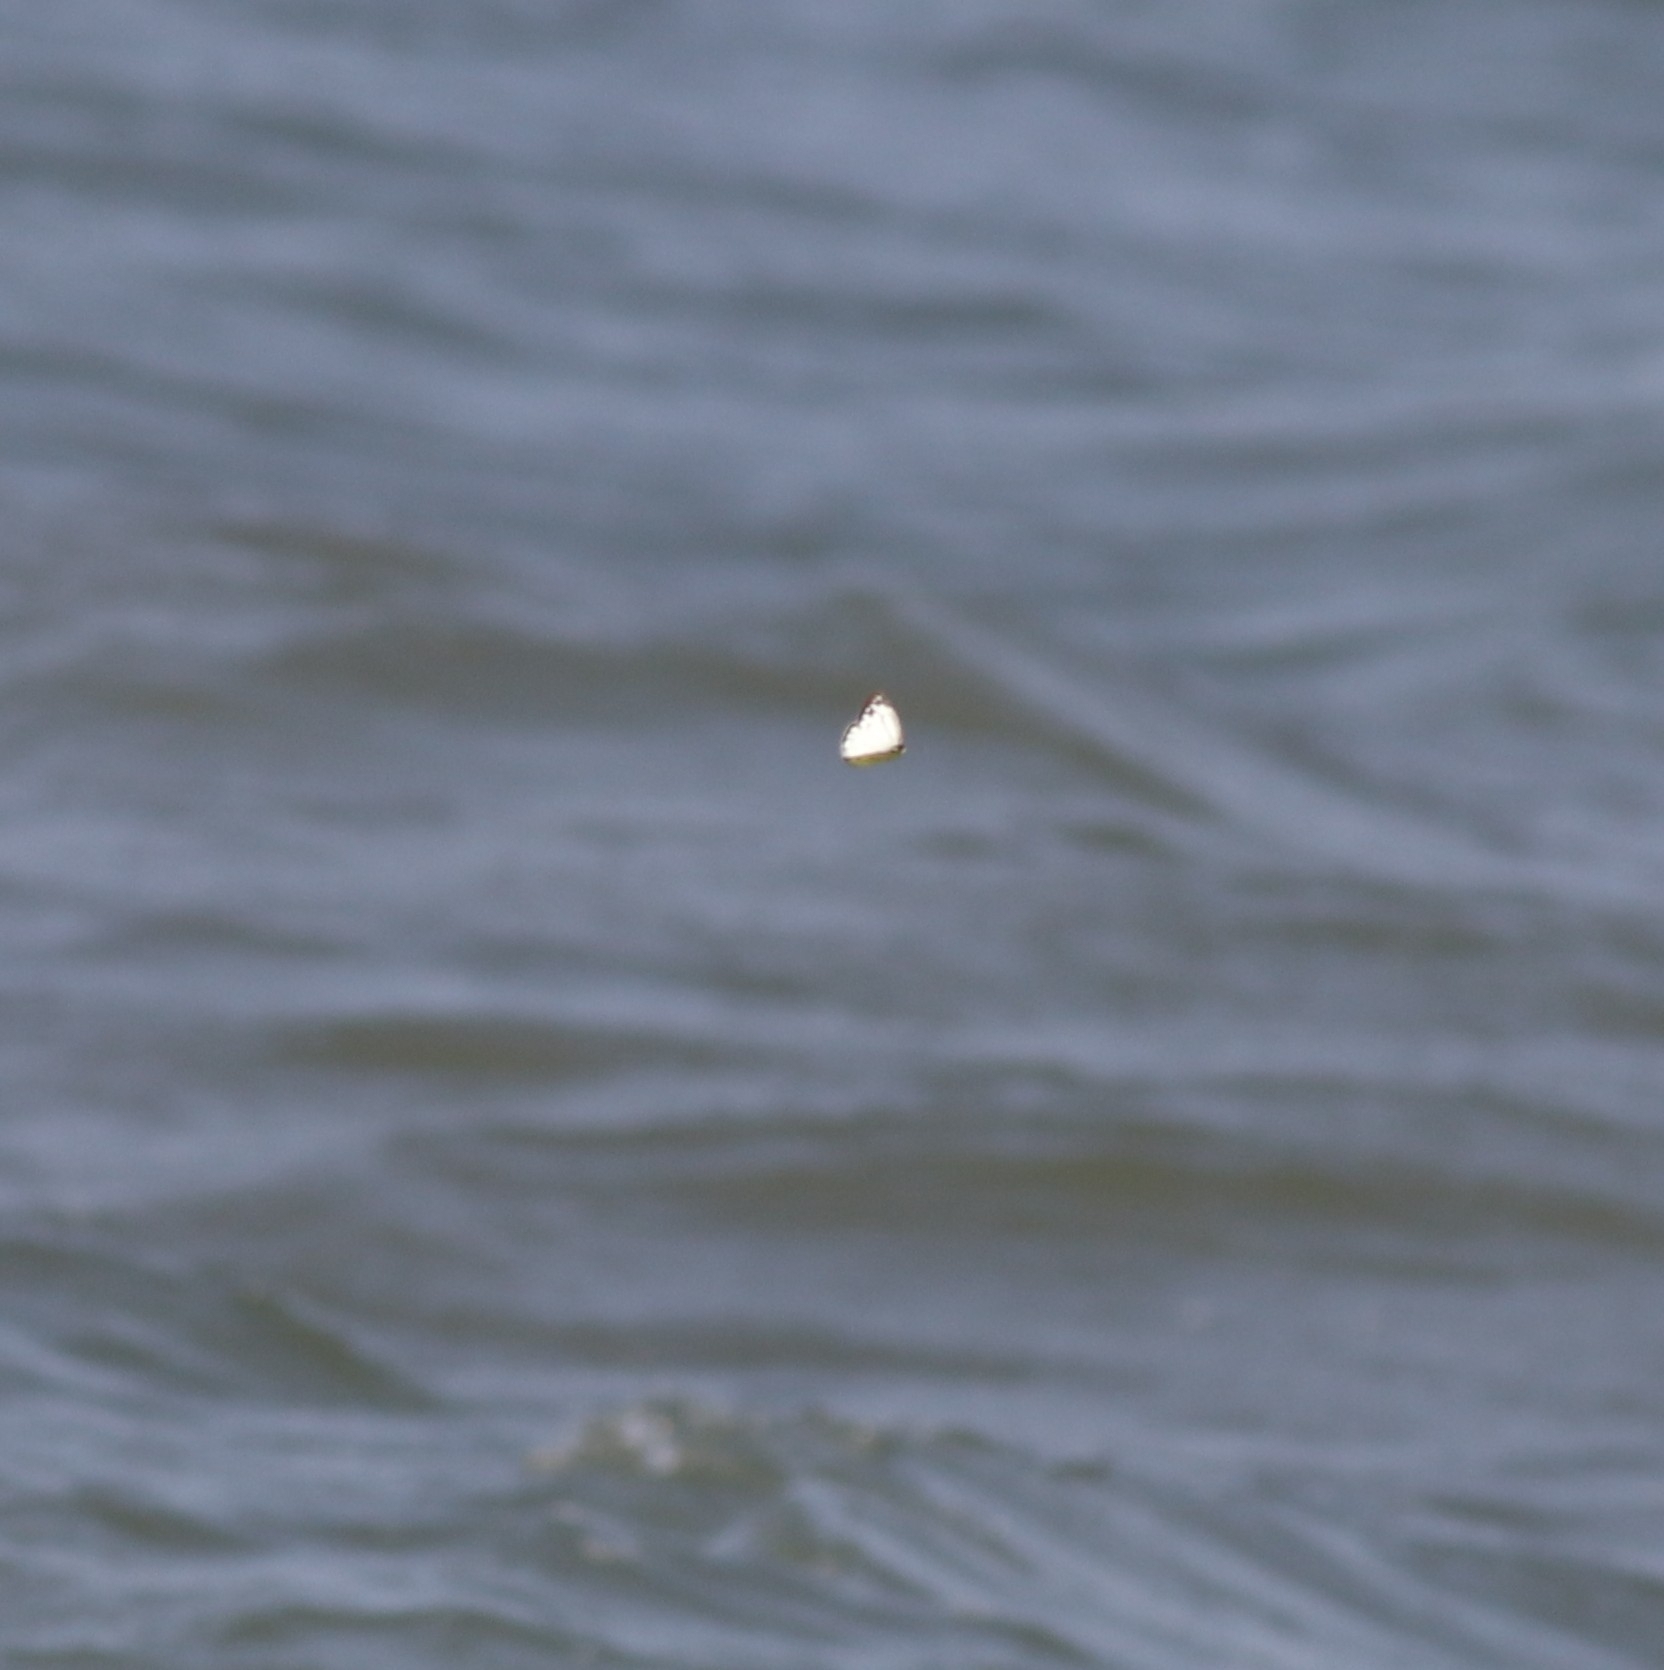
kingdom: Animalia
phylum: Arthropoda
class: Insecta
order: Lepidoptera
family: Pieridae
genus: Cepora
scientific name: Cepora nerissa
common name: Common gull
